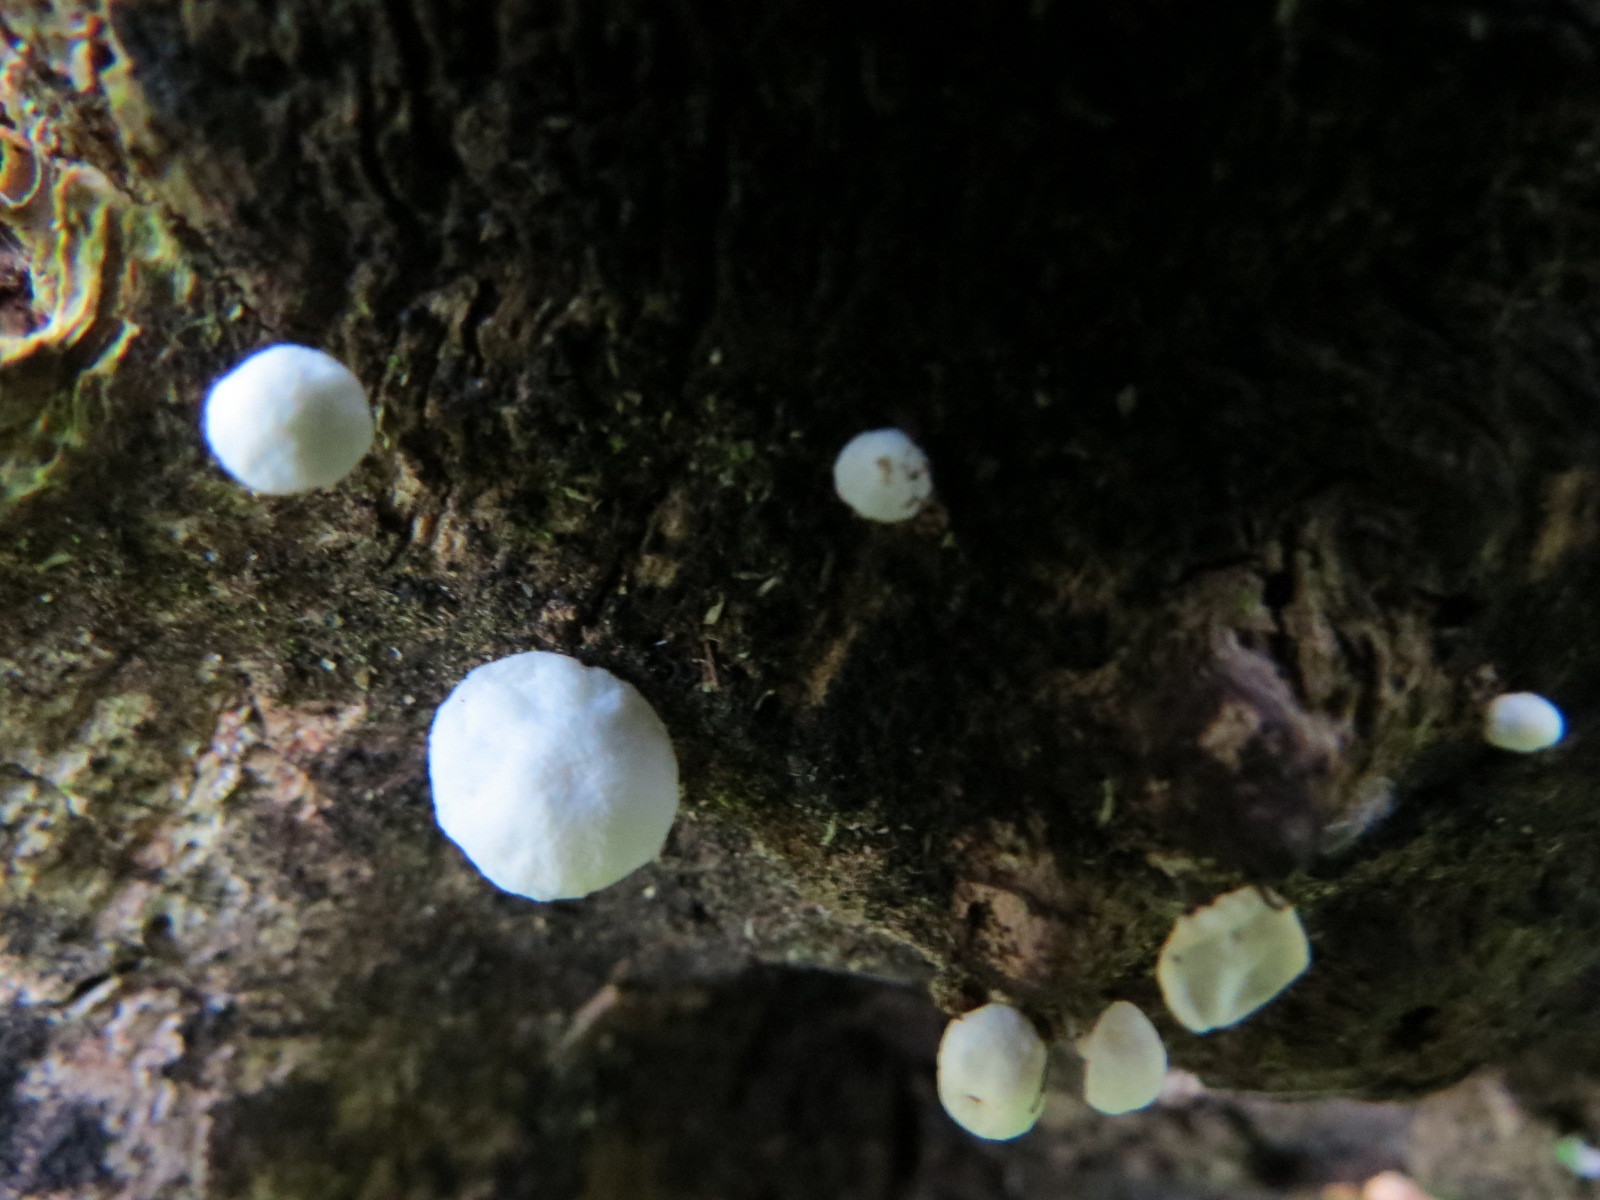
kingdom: Fungi
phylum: Basidiomycota
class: Agaricomycetes
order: Agaricales
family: Omphalotaceae
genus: Marasmiellus
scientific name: Marasmiellus candidus
